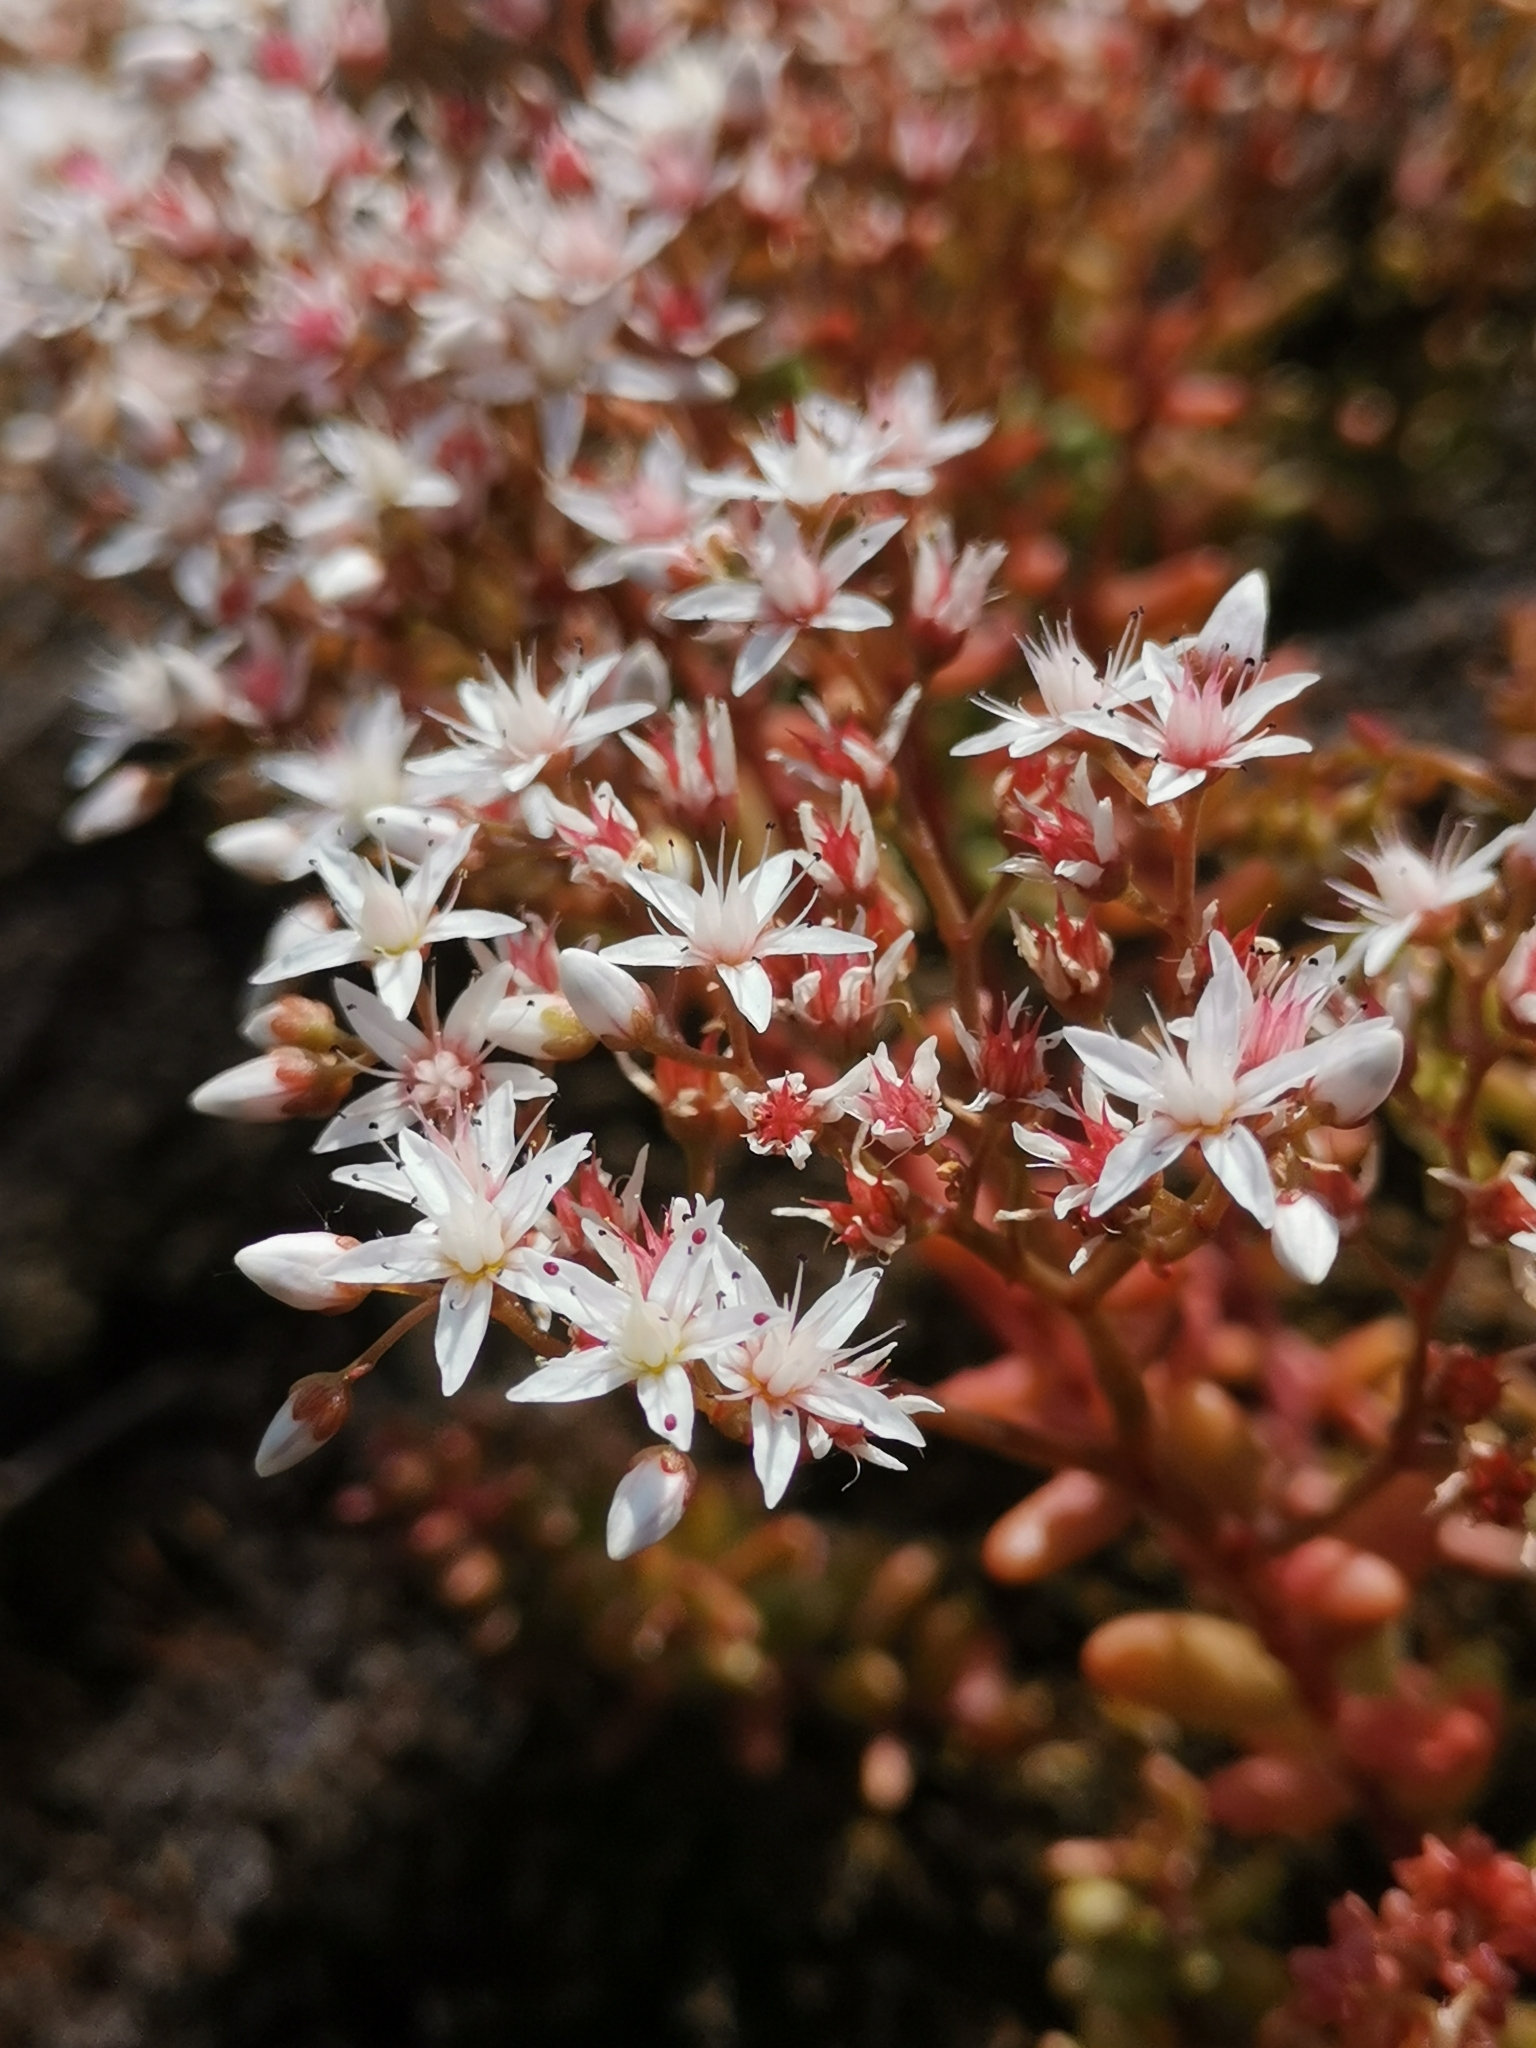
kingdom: Plantae
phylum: Tracheophyta
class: Magnoliopsida
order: Saxifragales
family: Crassulaceae
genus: Sedum
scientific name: Sedum album
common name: White stonecrop
